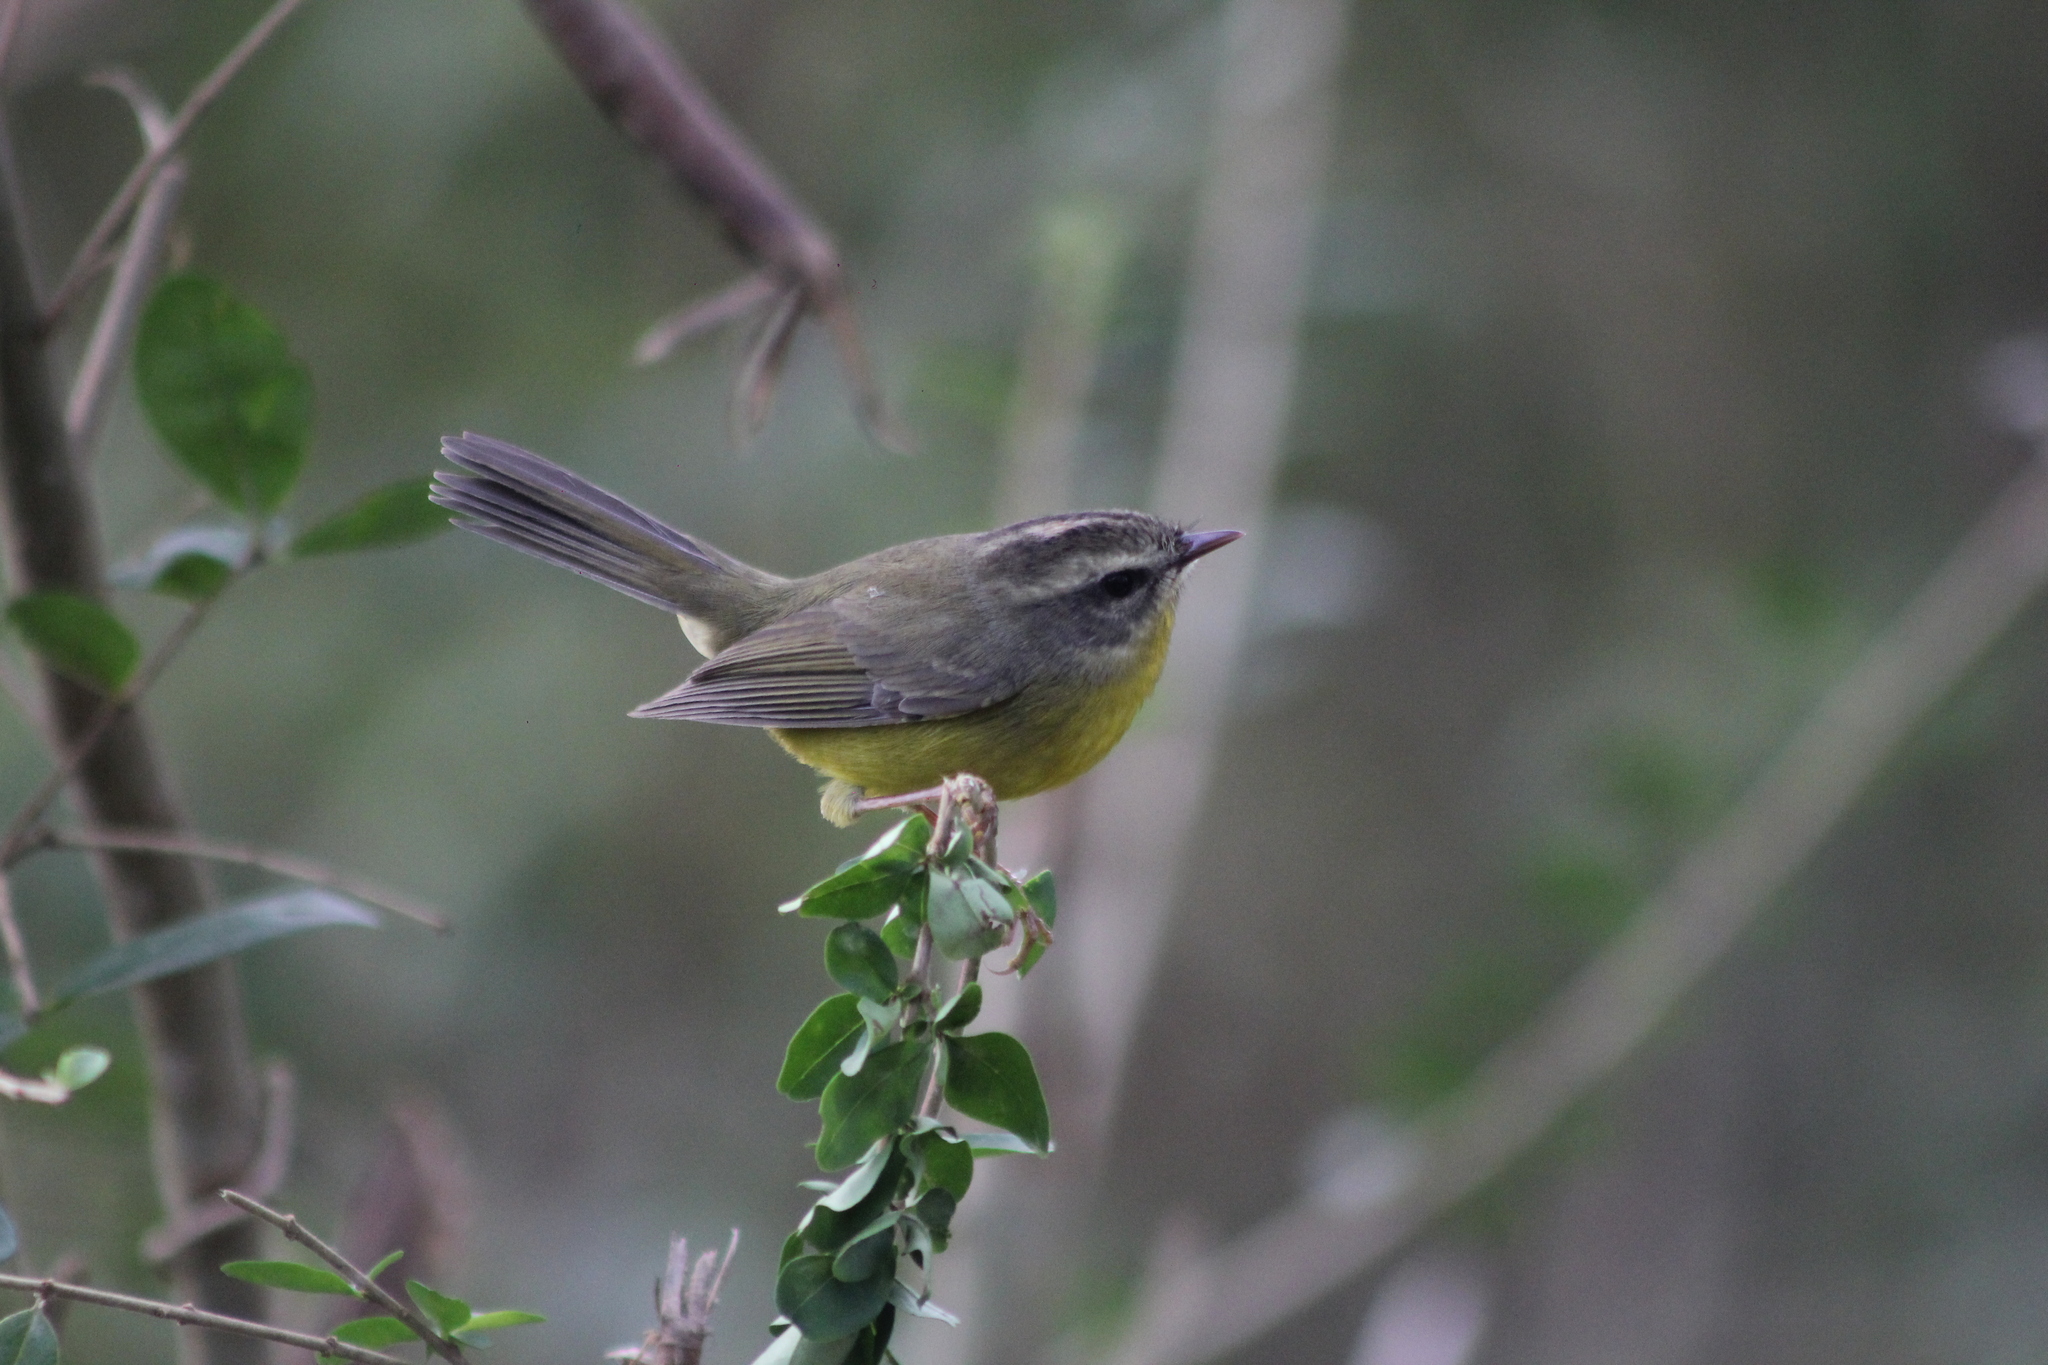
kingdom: Animalia
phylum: Chordata
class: Aves
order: Passeriformes
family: Parulidae
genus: Basileuterus
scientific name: Basileuterus culicivorus
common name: Golden-crowned warbler
